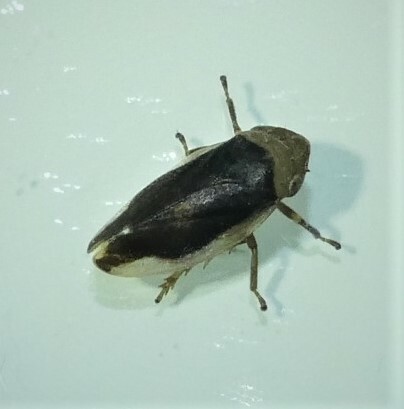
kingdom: Animalia
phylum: Arthropoda
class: Insecta
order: Hemiptera
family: Aphrophoridae
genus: Philaenus
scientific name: Philaenus spumarius
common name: Meadow spittlebug
